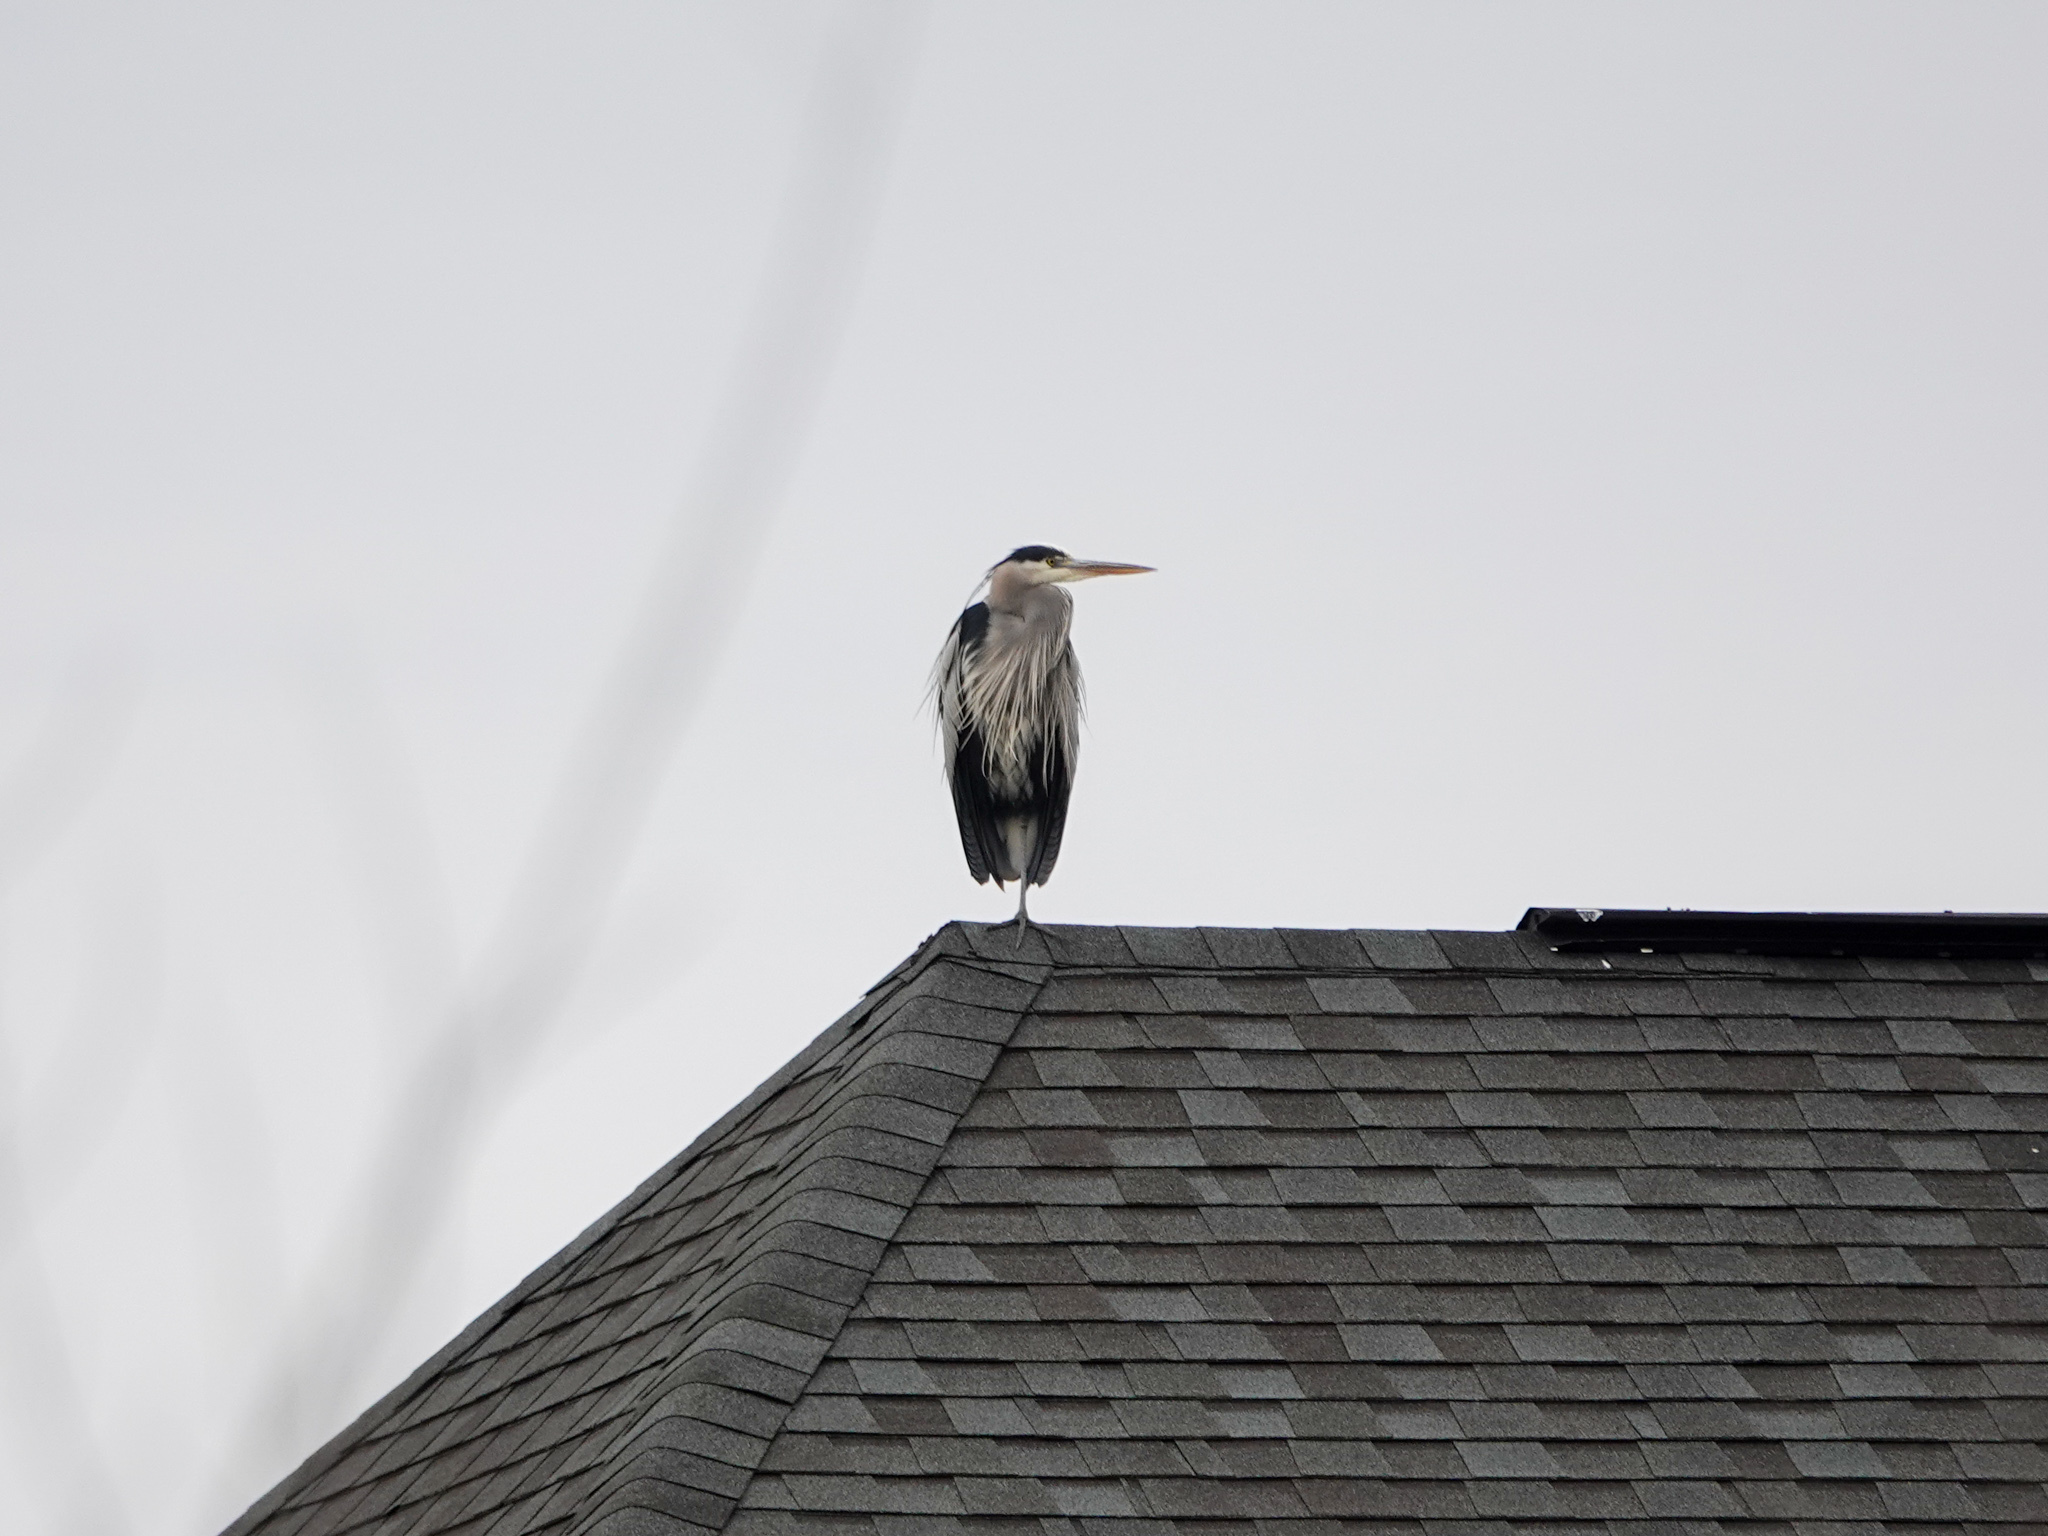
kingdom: Animalia
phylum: Chordata
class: Aves
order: Pelecaniformes
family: Ardeidae
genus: Ardea
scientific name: Ardea herodias
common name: Great blue heron
